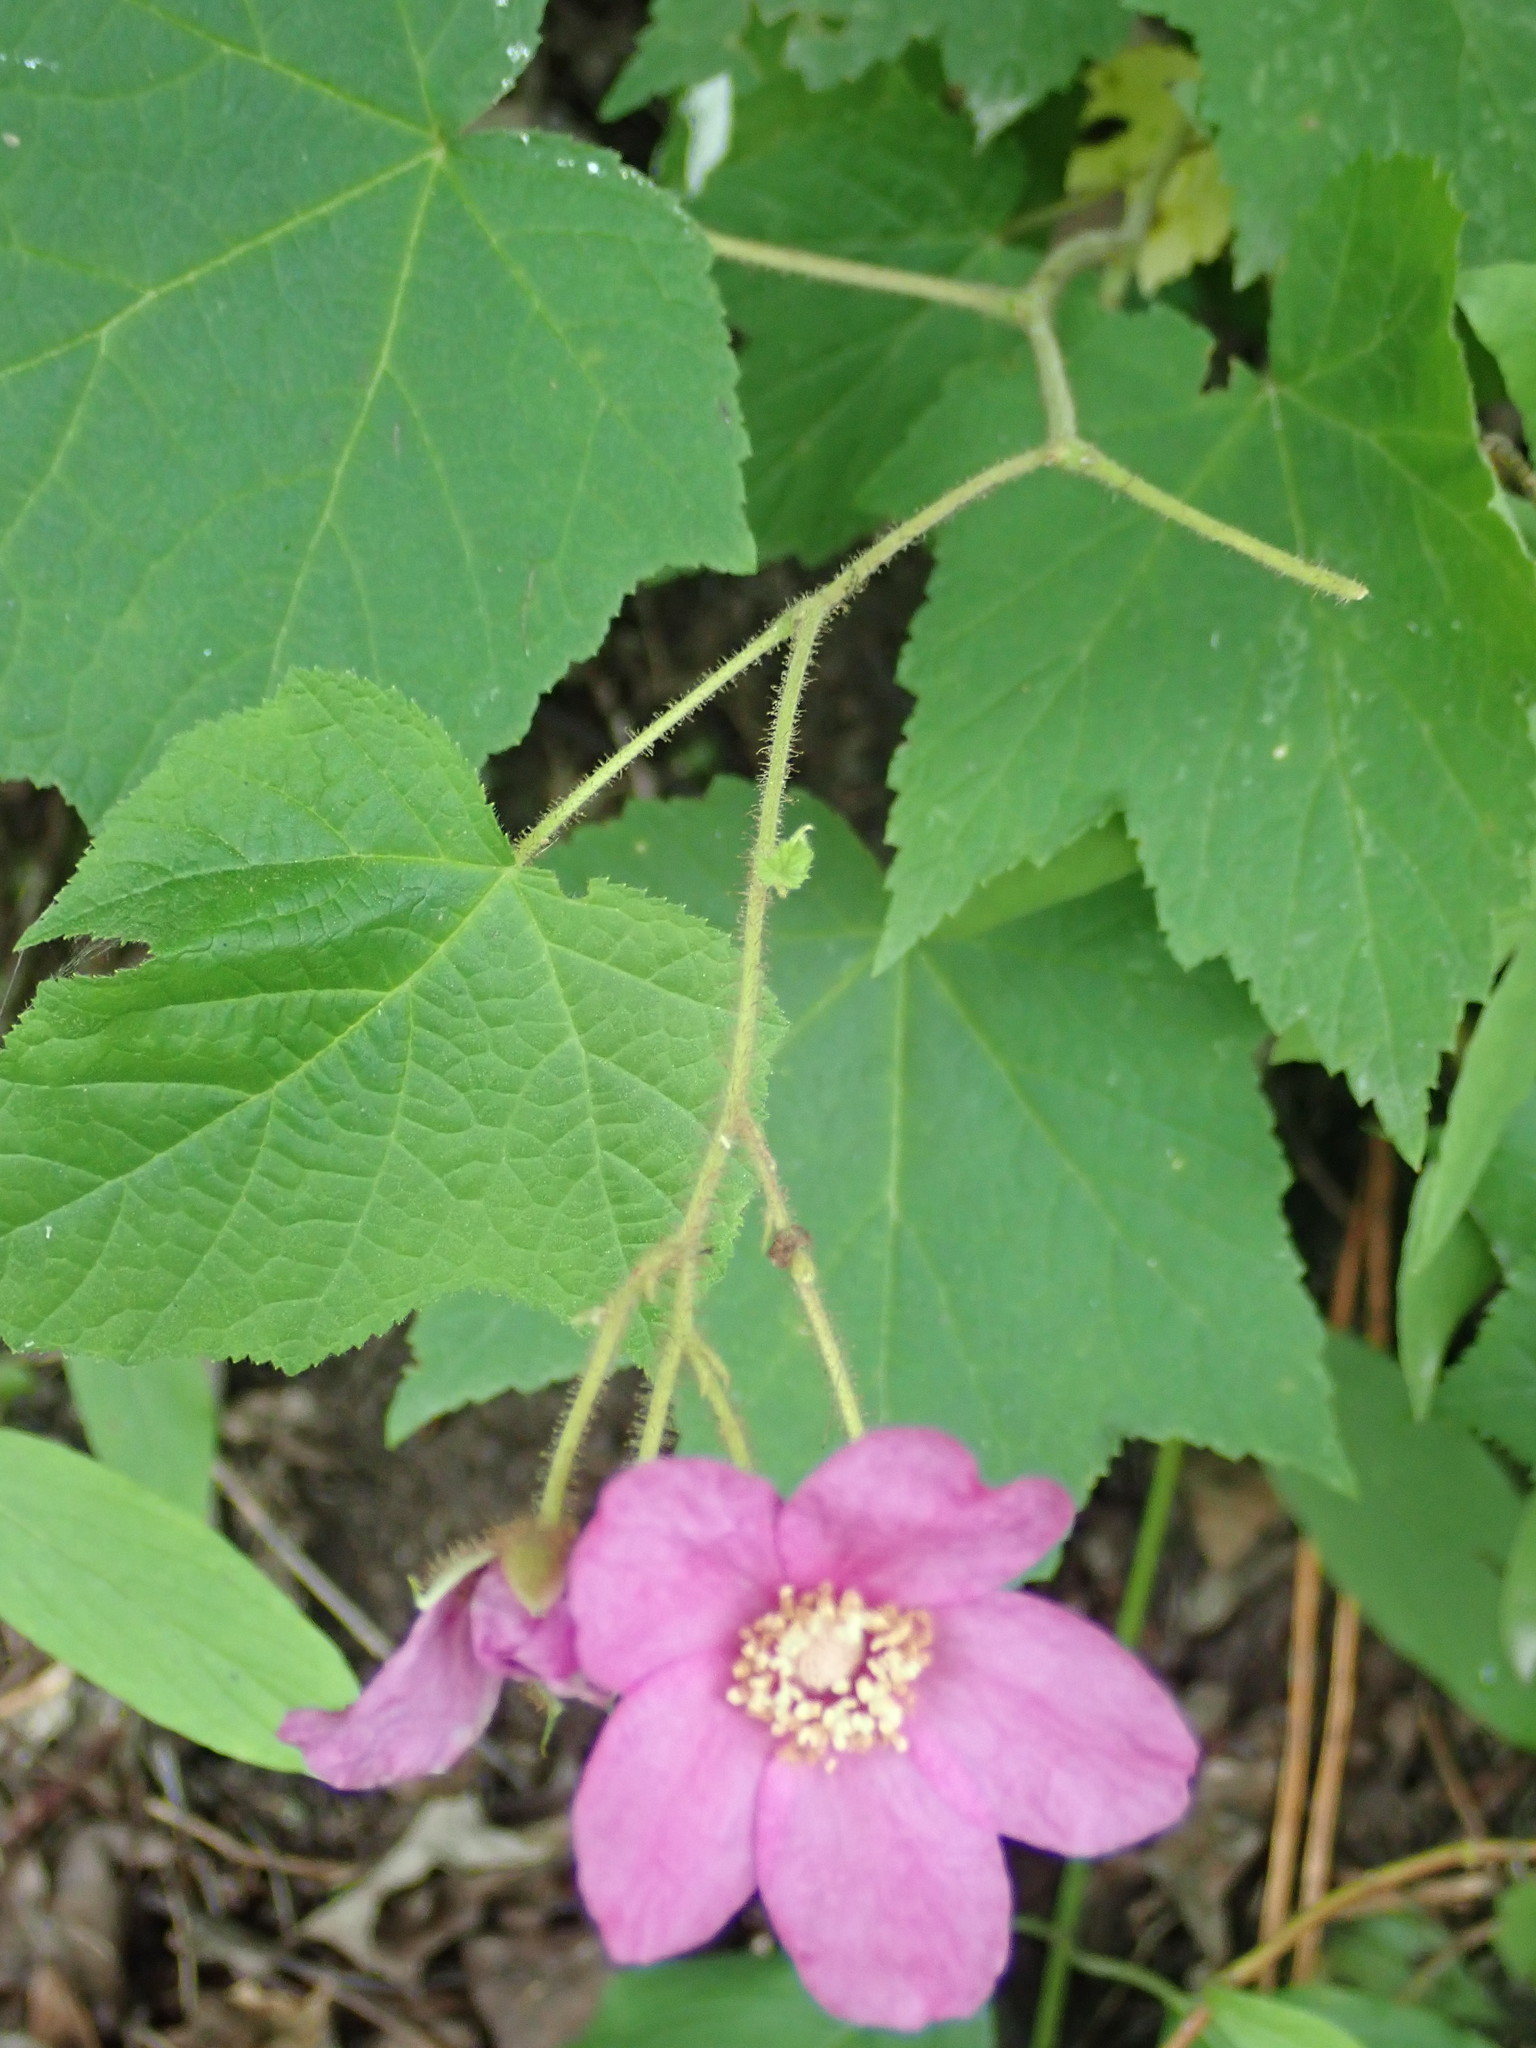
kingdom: Plantae
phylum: Tracheophyta
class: Magnoliopsida
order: Rosales
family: Rosaceae
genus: Rubus
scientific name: Rubus odoratus
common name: Purple-flowered raspberry
